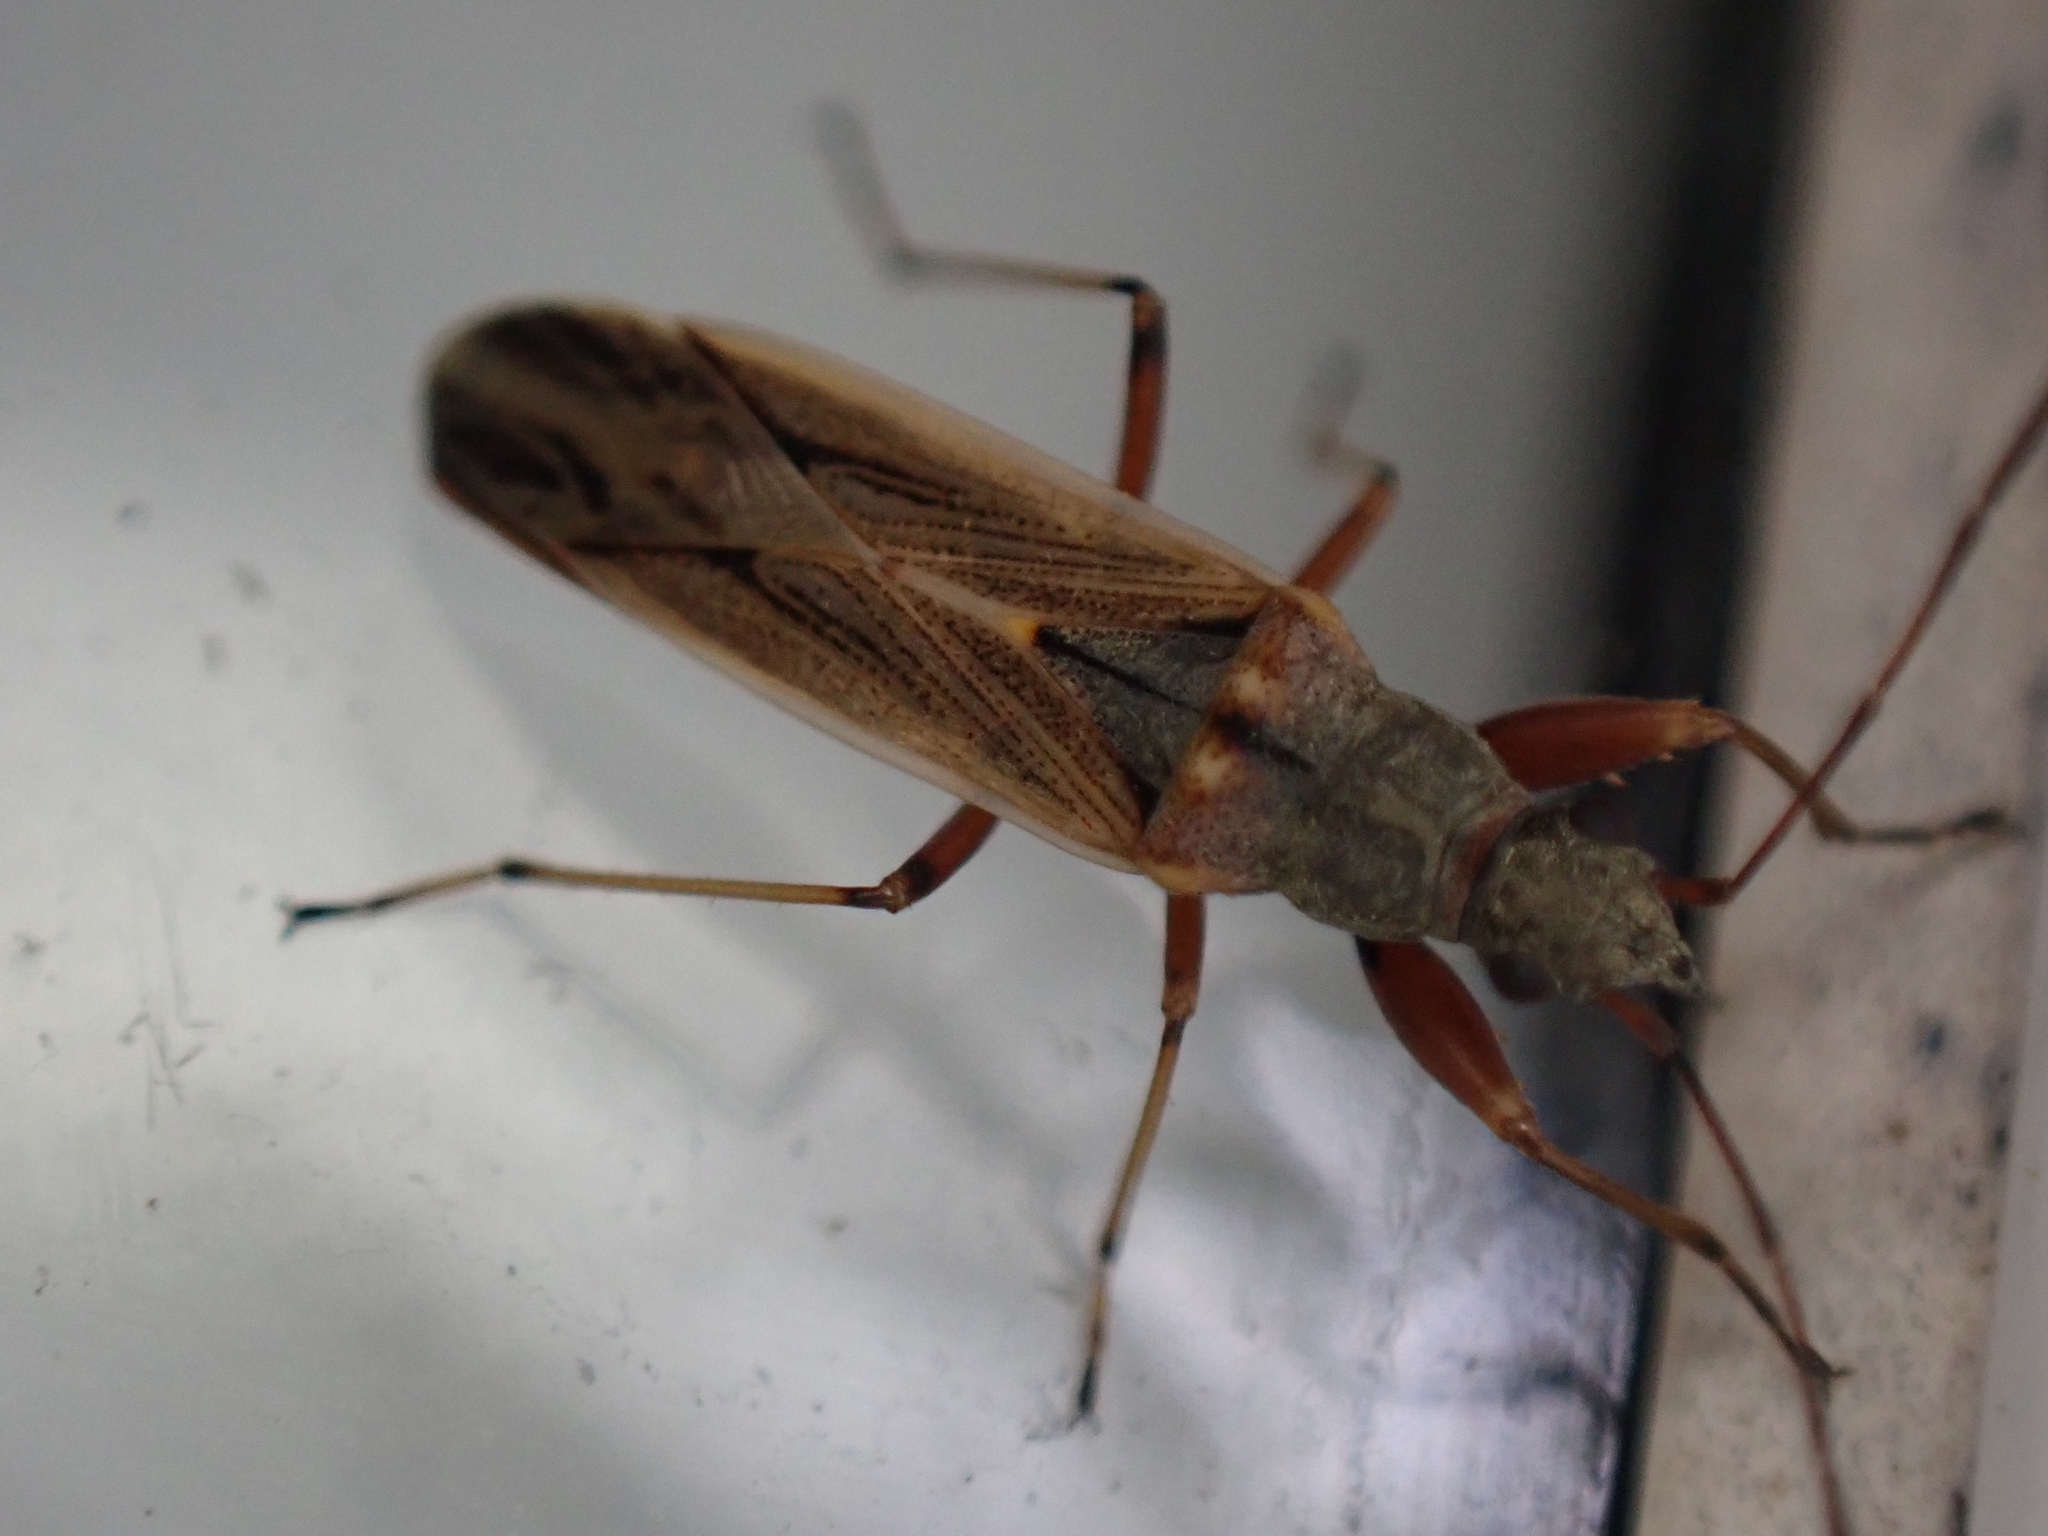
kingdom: Animalia
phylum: Arthropoda
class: Insecta
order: Hemiptera
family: Rhyparochromidae
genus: Paromius
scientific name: Paromius longulus
